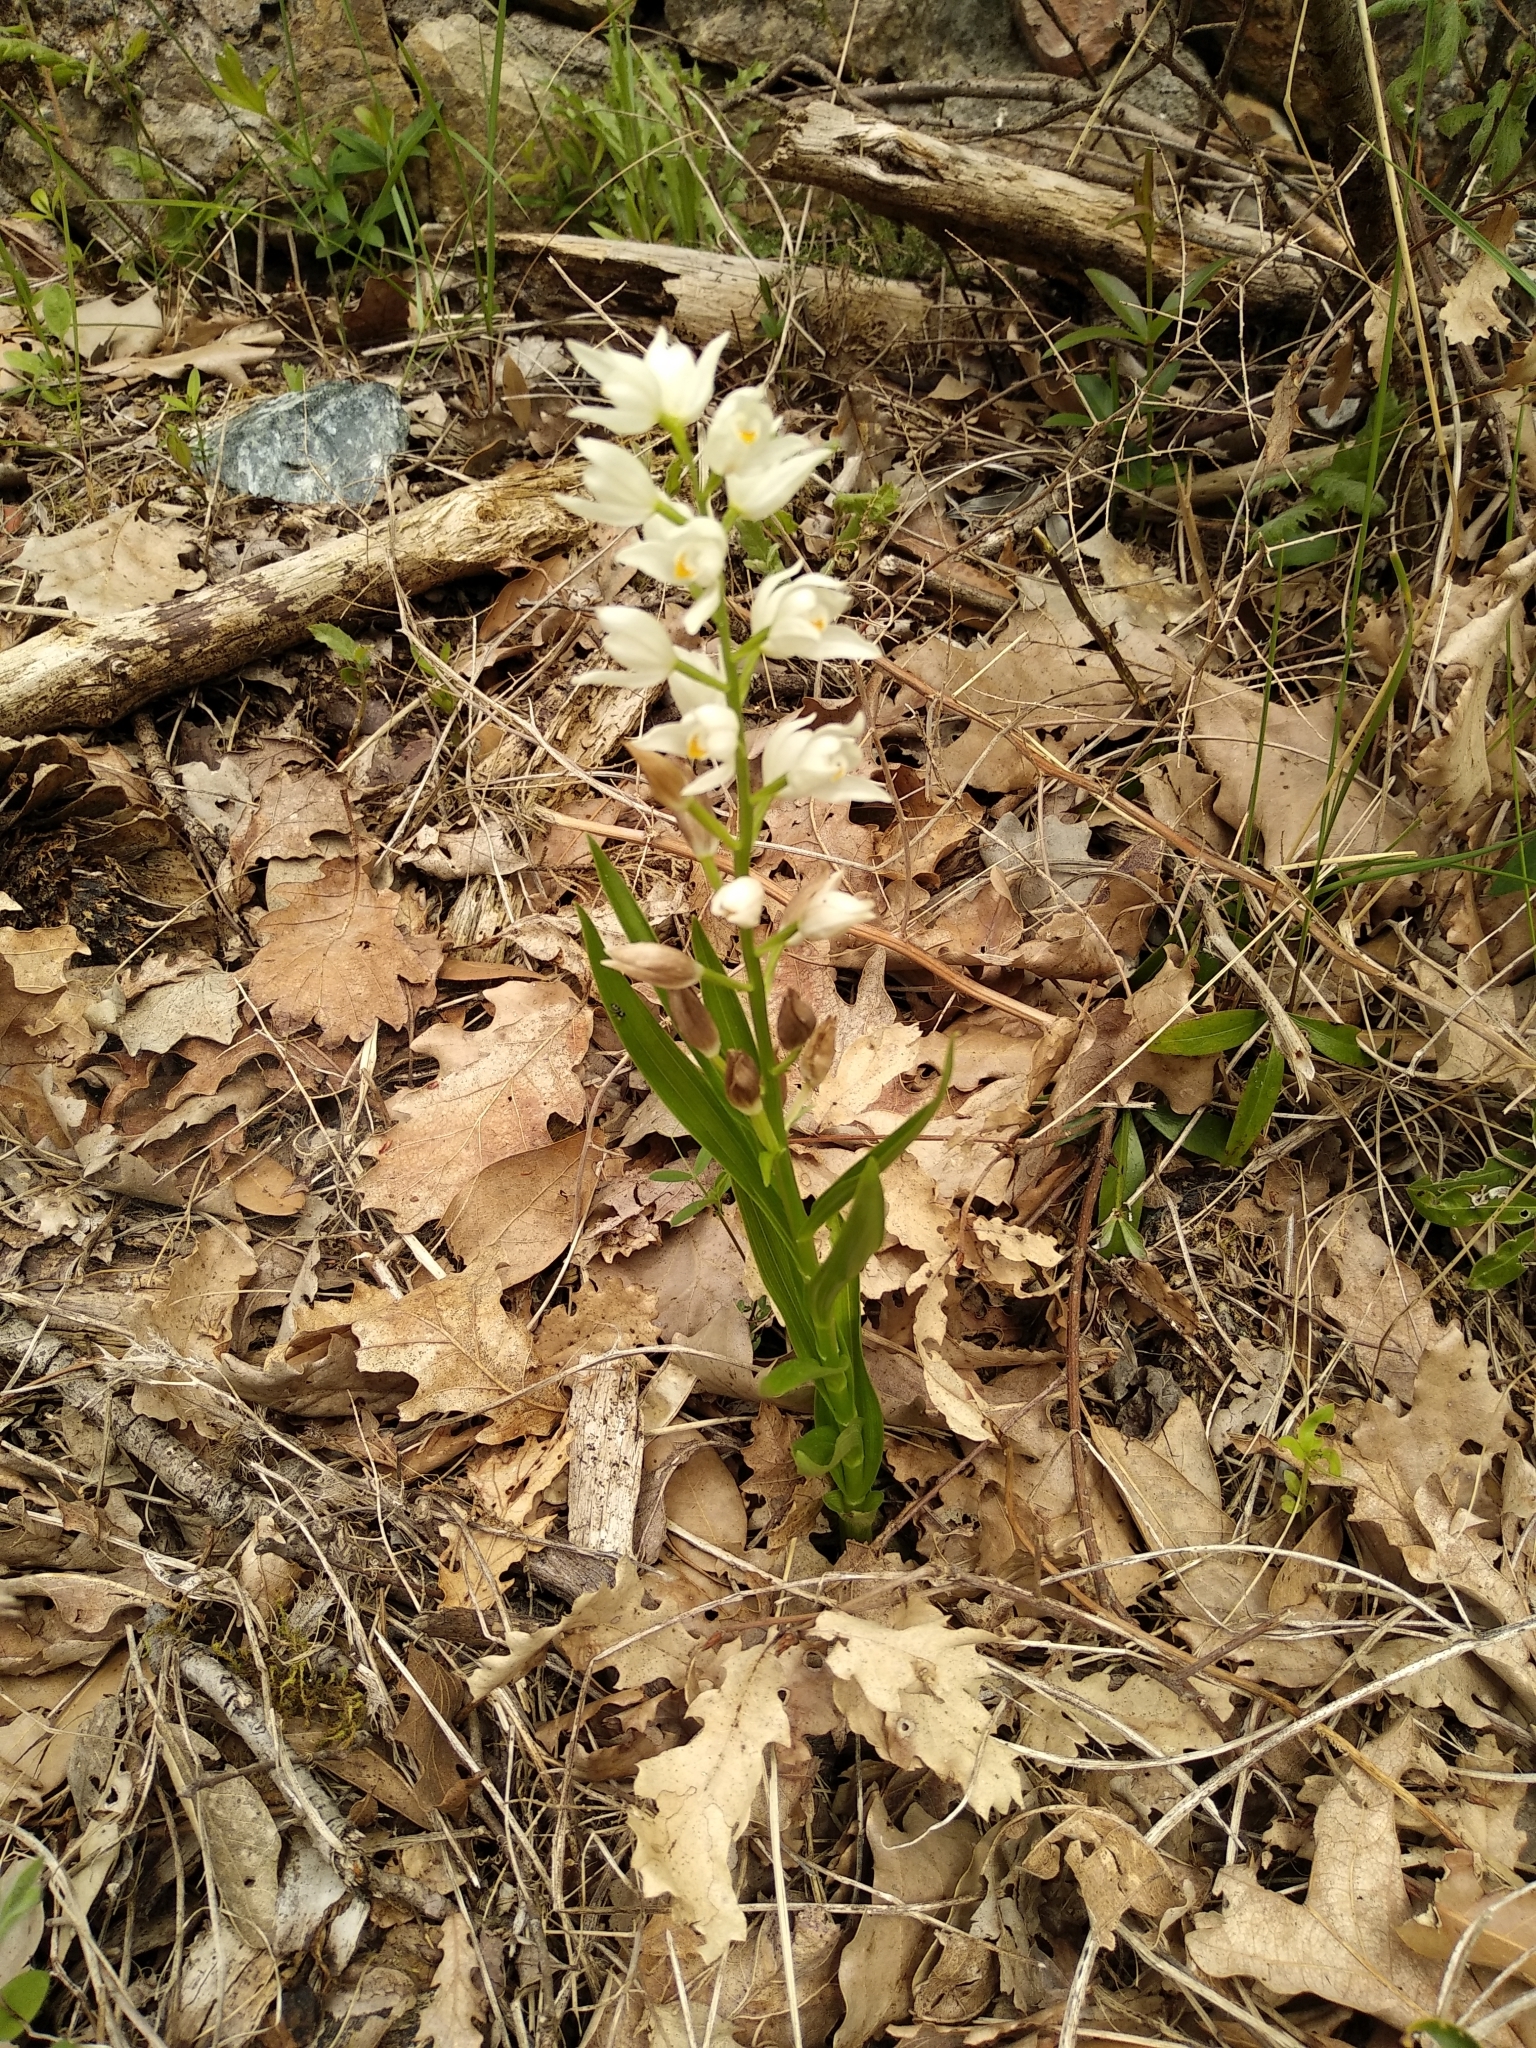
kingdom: Plantae
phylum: Tracheophyta
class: Liliopsida
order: Asparagales
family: Orchidaceae
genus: Cephalanthera
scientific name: Cephalanthera longifolia
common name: Narrow-leaved helleborine
